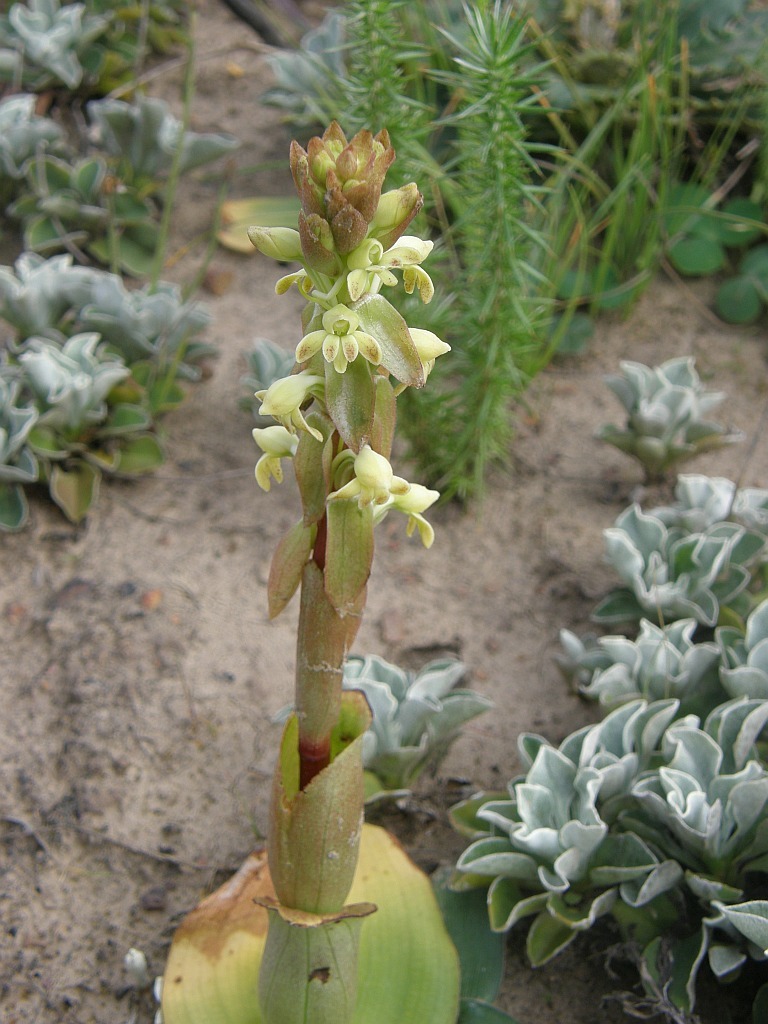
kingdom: Plantae
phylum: Tracheophyta
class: Liliopsida
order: Asparagales
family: Orchidaceae
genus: Satyrium
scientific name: Satyrium bicorne
